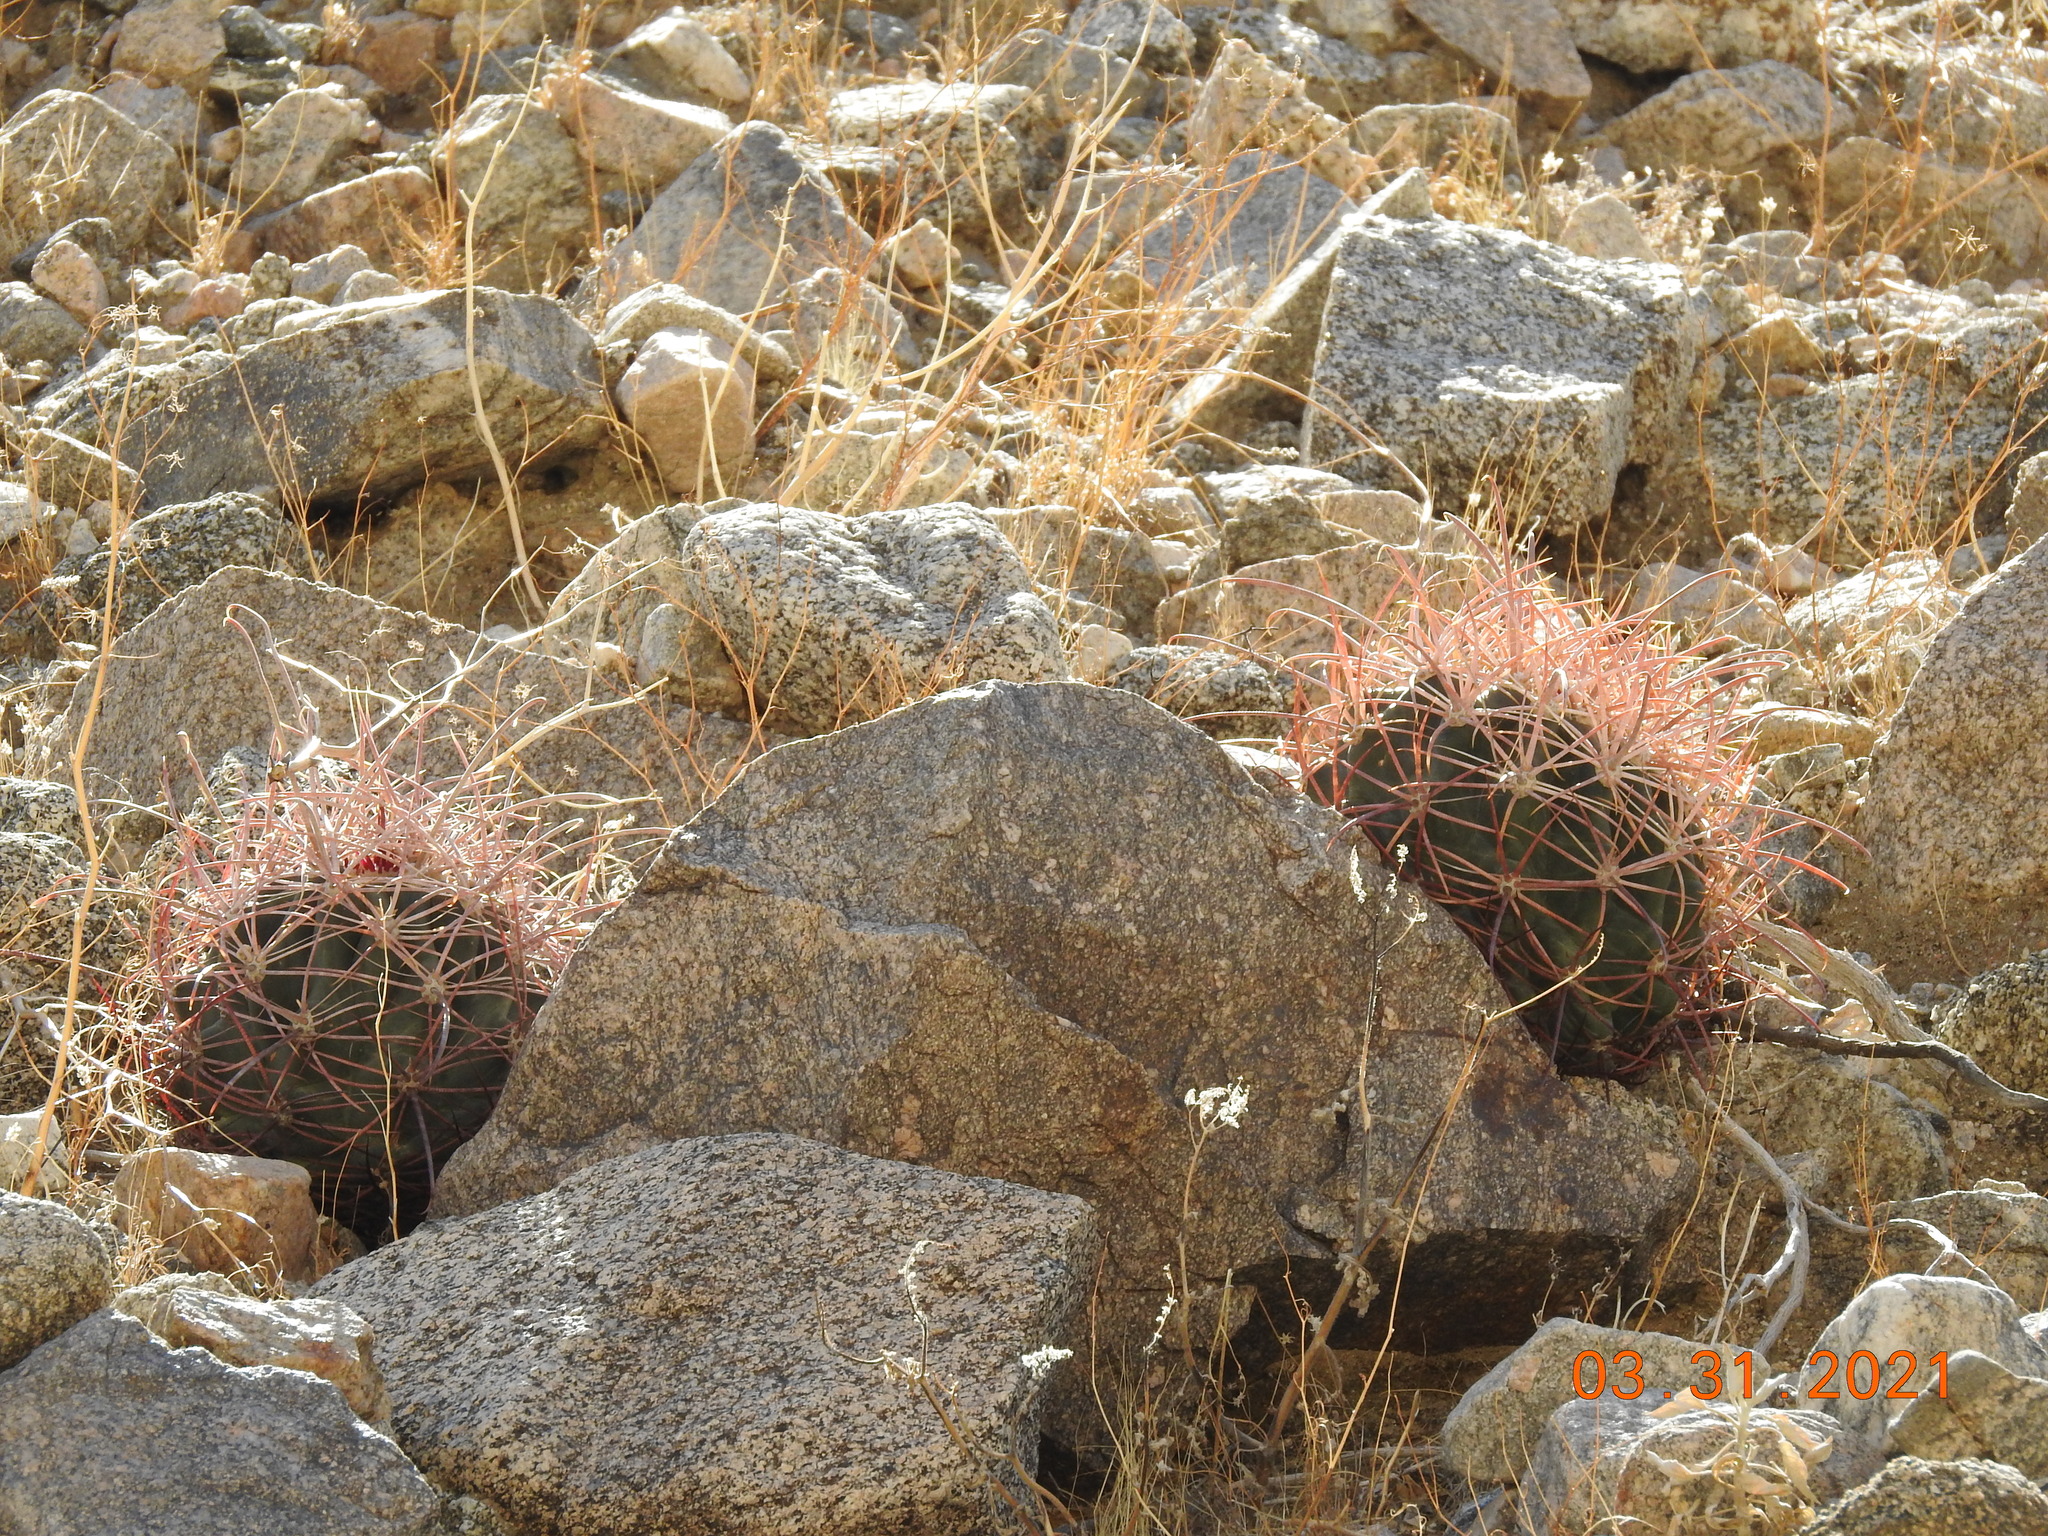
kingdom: Plantae
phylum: Tracheophyta
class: Magnoliopsida
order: Caryophyllales
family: Cactaceae
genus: Ferocactus
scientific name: Ferocactus cylindraceus
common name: California barrel cactus
